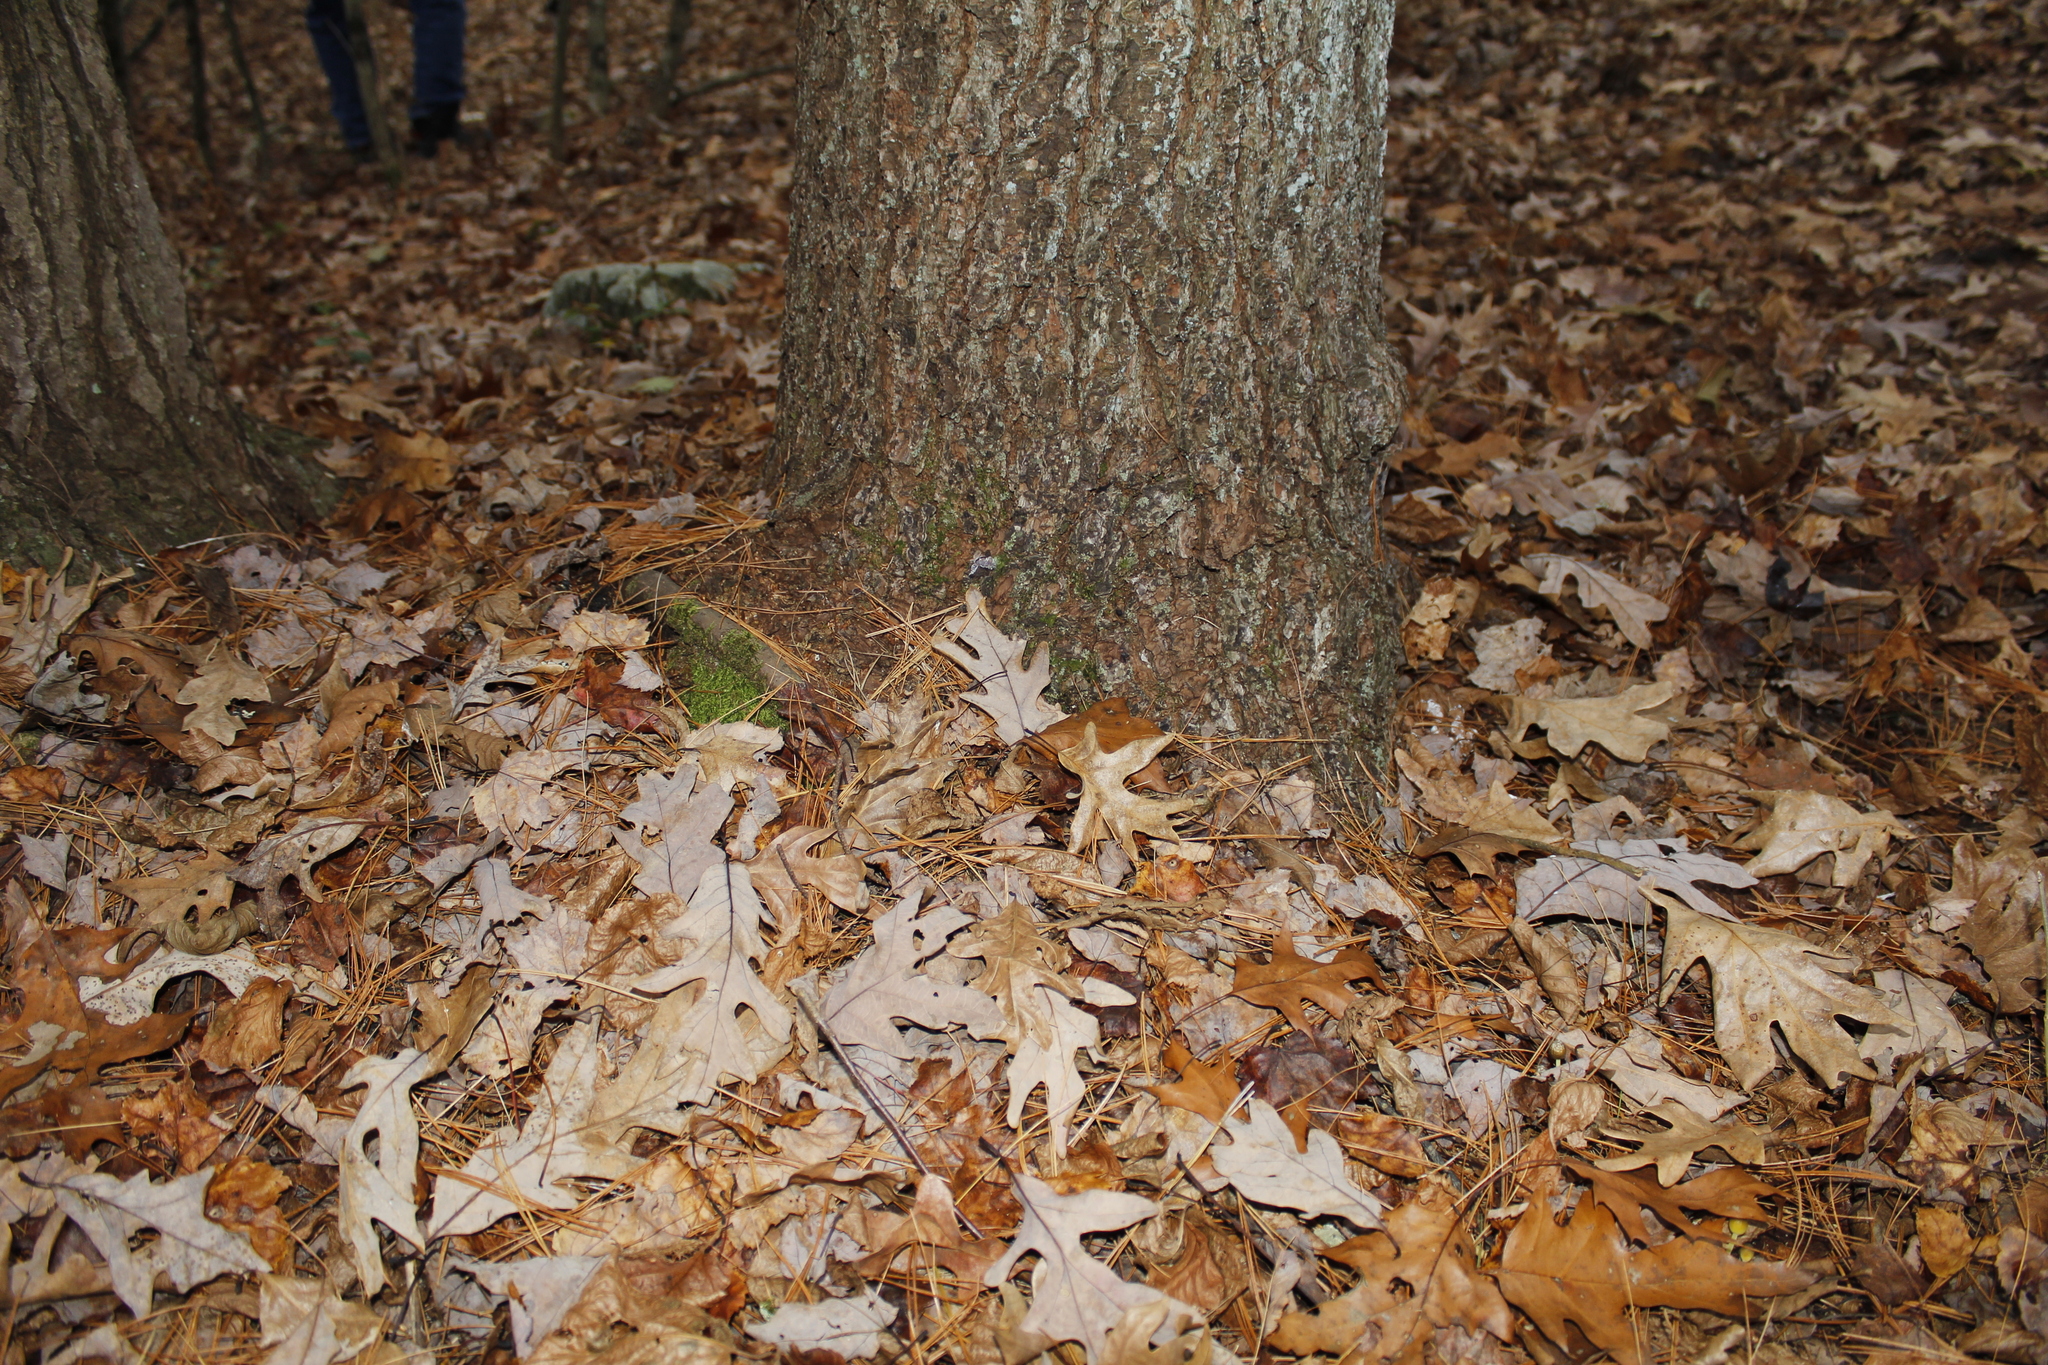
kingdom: Plantae
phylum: Tracheophyta
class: Pinopsida
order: Pinales
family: Pinaceae
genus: Pinus
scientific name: Pinus strobus
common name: Weymouth pine
